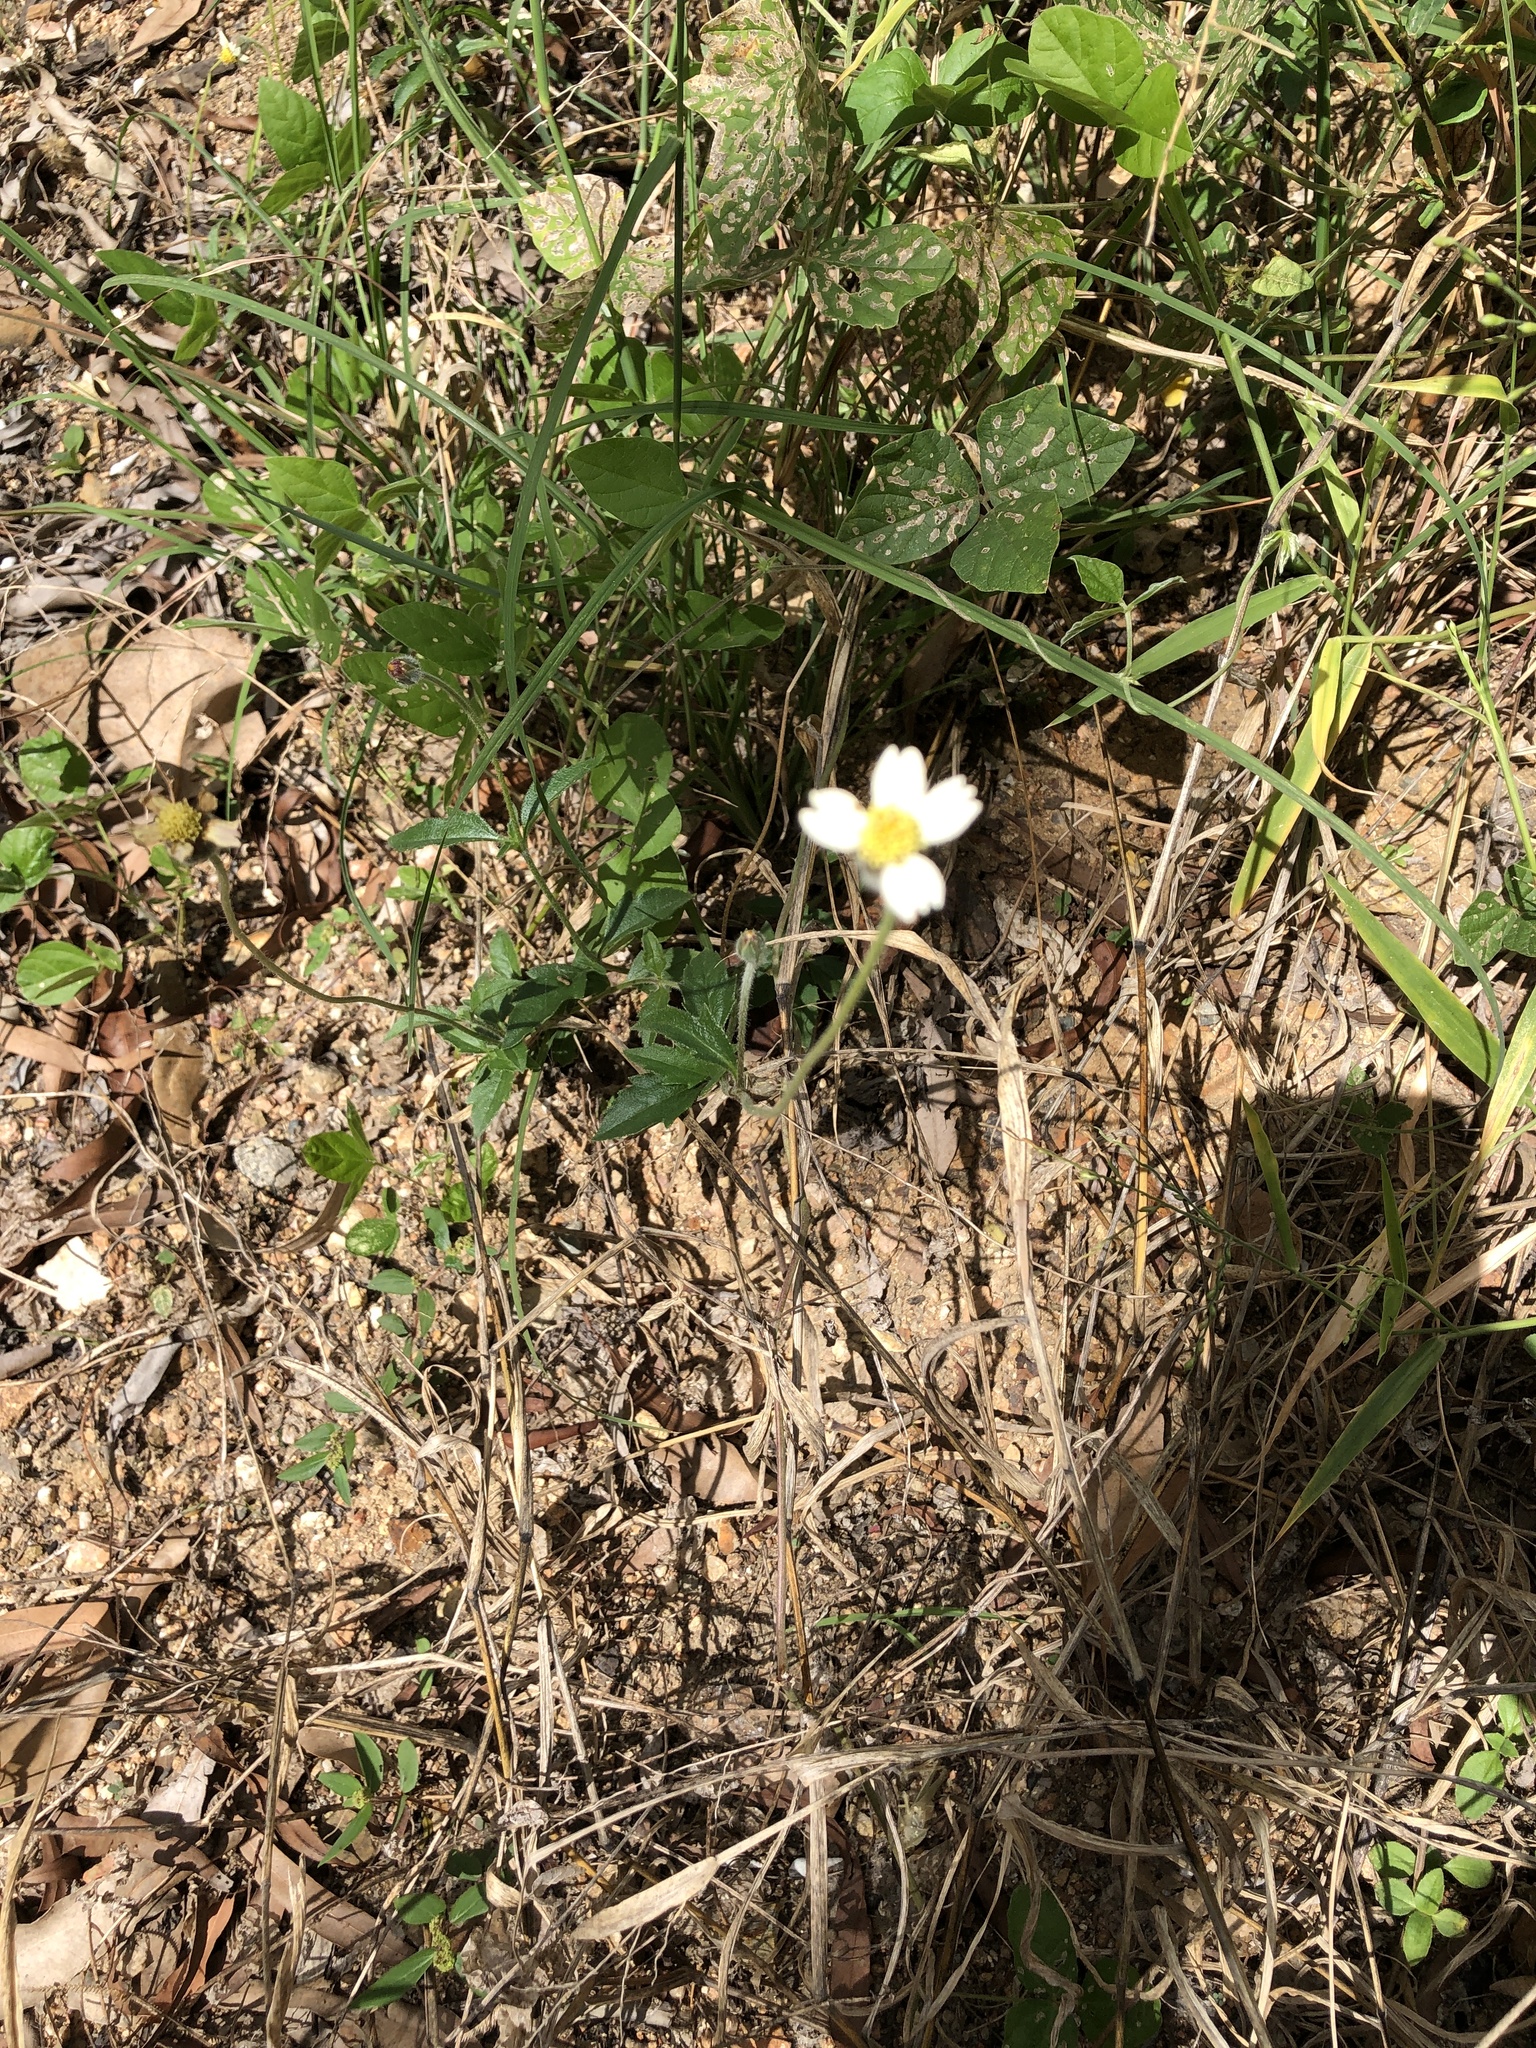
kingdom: Plantae
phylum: Tracheophyta
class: Magnoliopsida
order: Asterales
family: Asteraceae
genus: Tridax
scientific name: Tridax procumbens
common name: Coatbuttons
